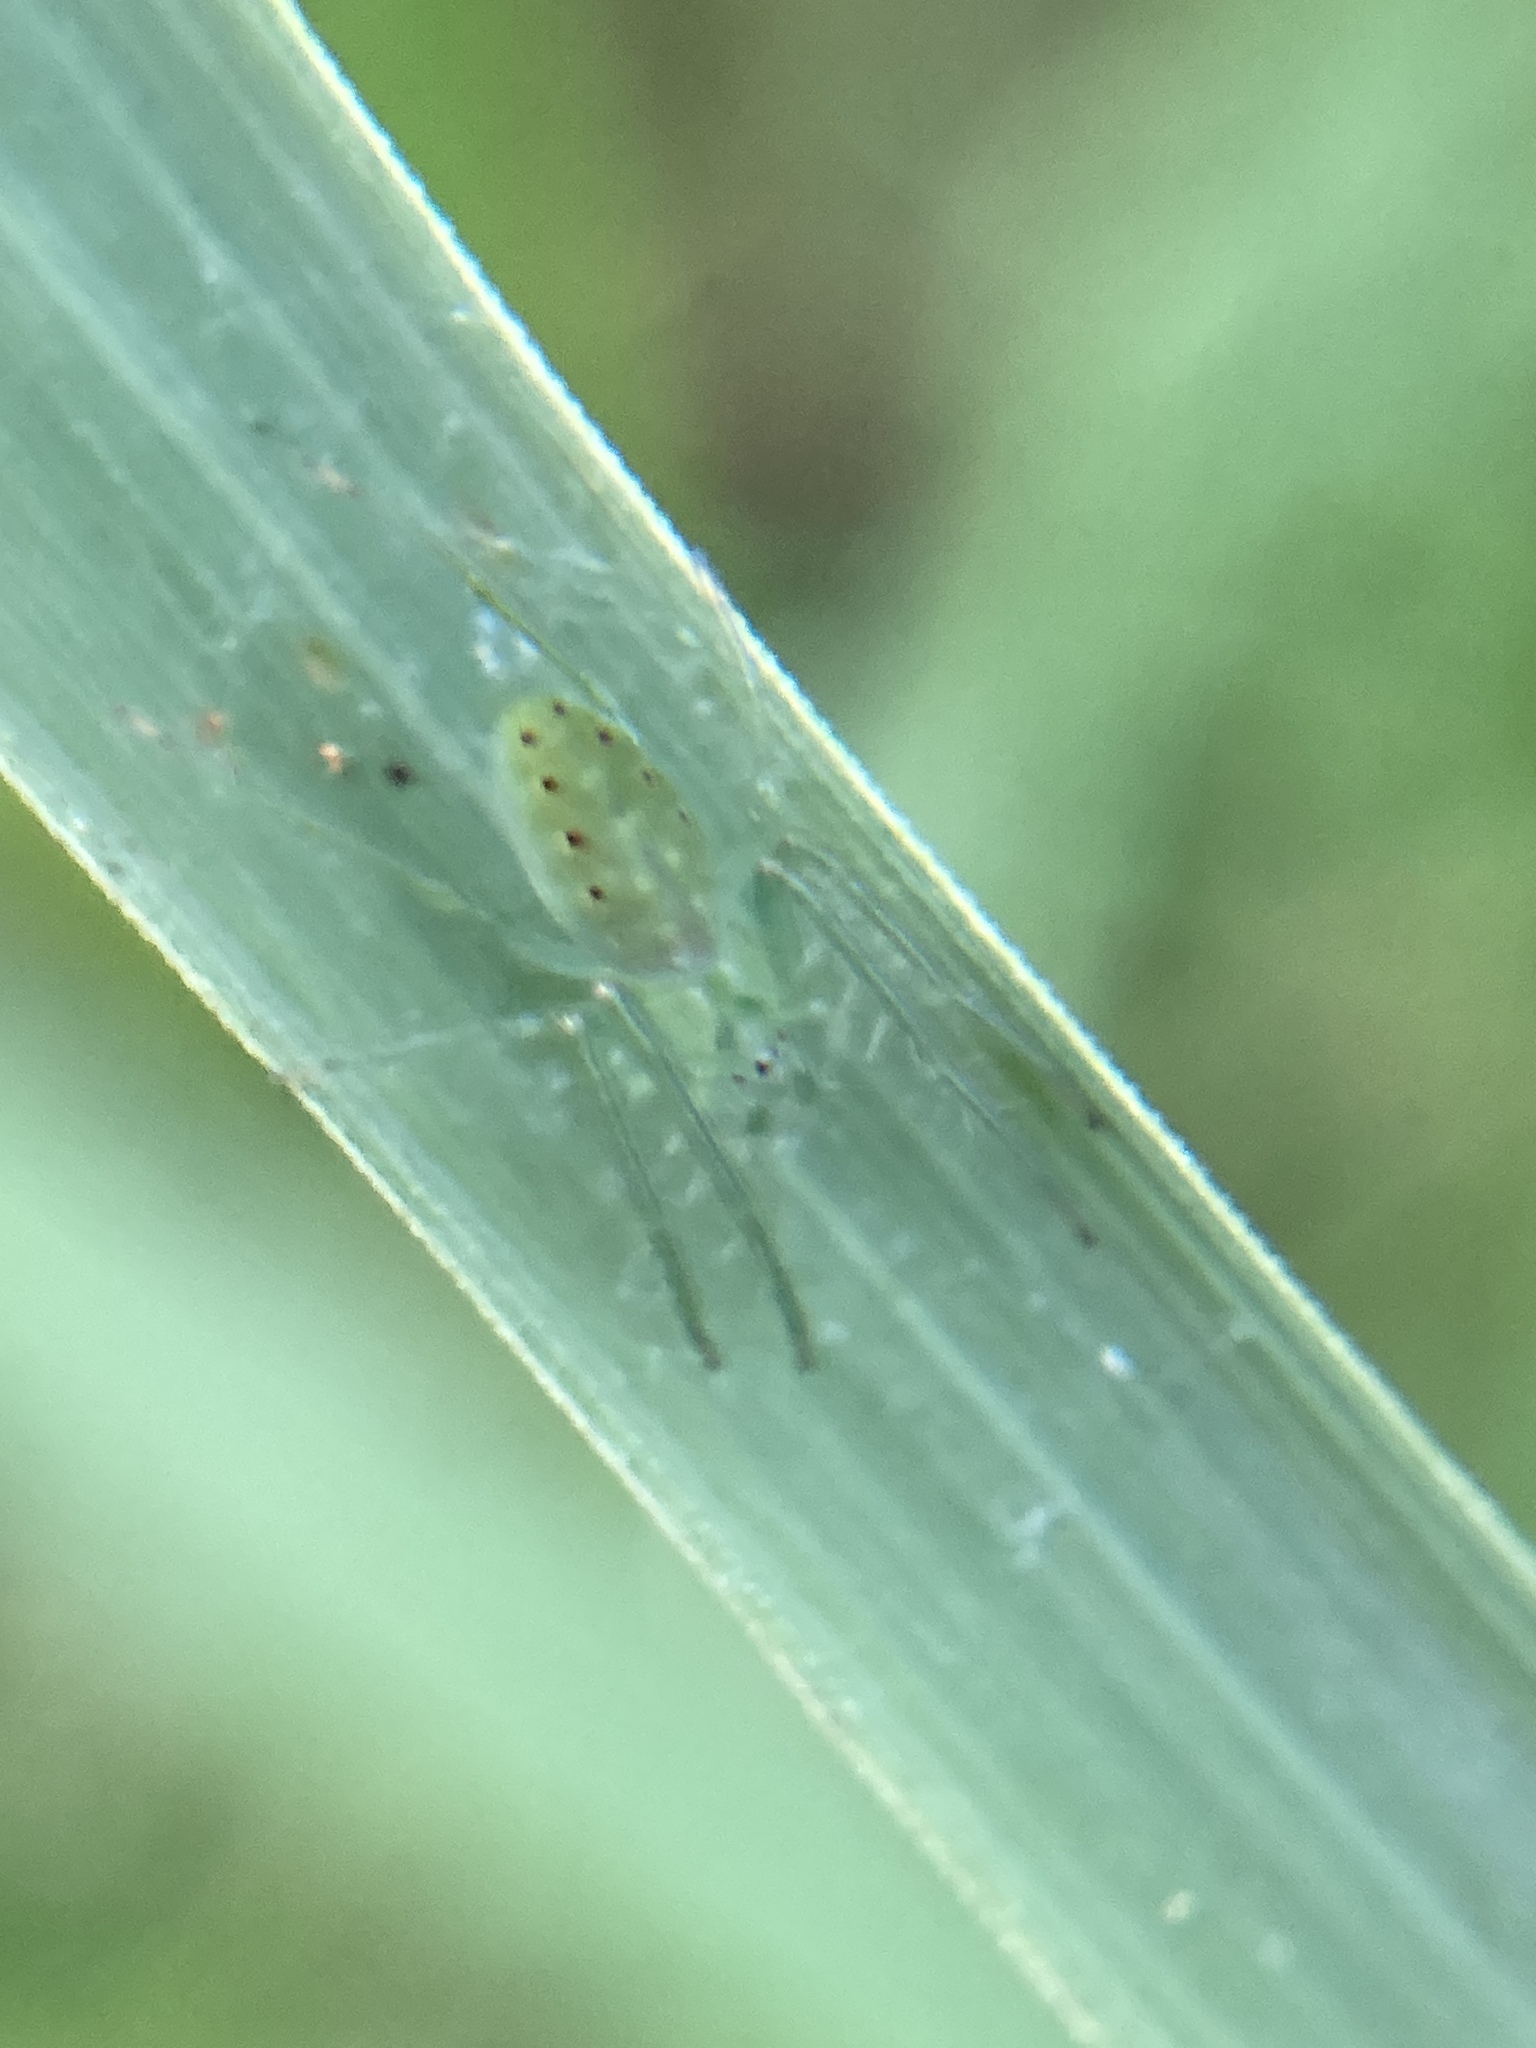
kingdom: Animalia
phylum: Arthropoda
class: Arachnida
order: Araneae
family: Araneidae
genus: Araneus
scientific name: Araneus talipedatus
